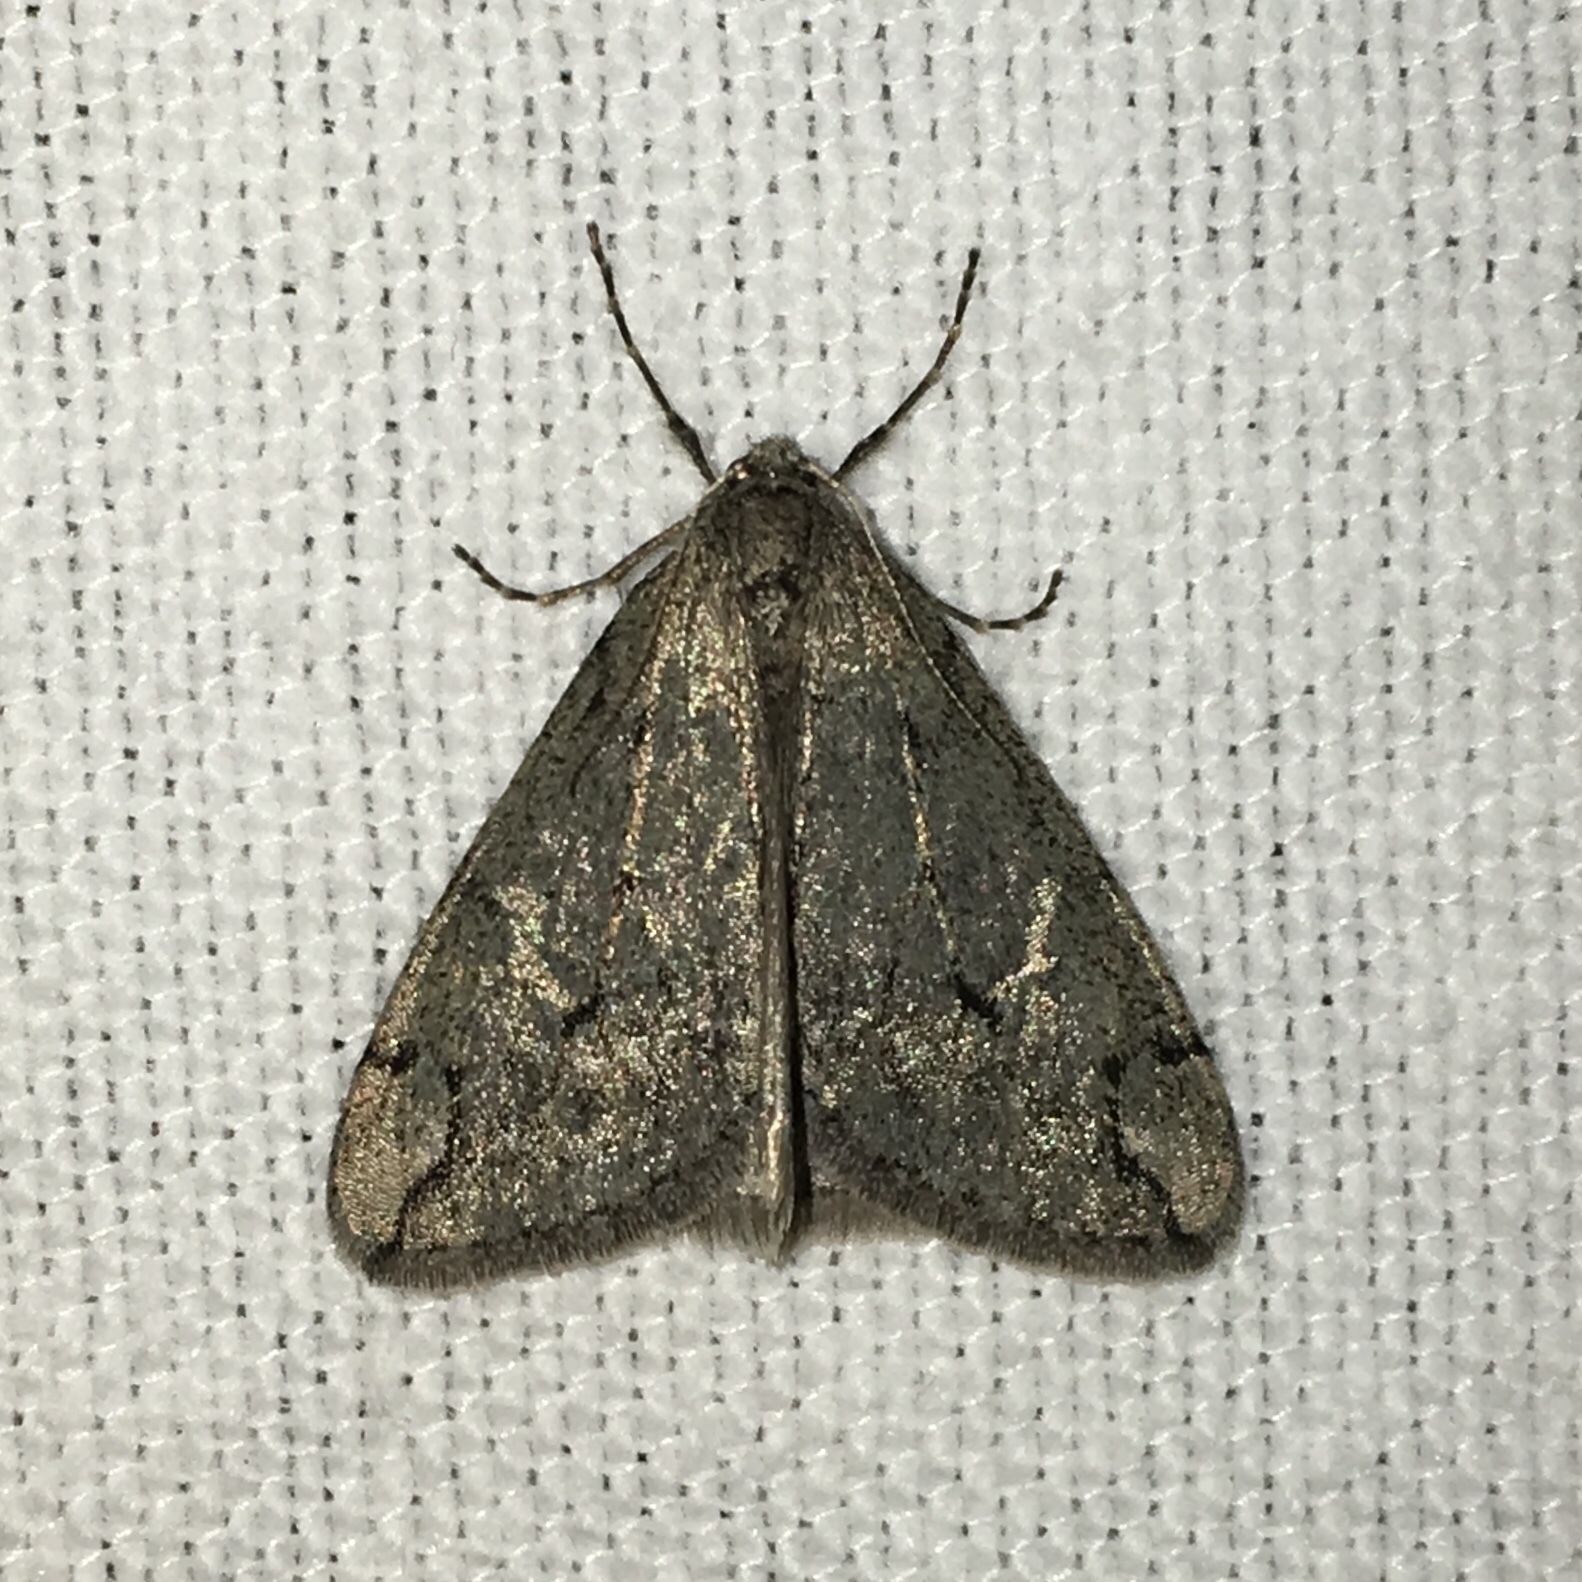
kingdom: Animalia
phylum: Arthropoda
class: Insecta
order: Lepidoptera
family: Geometridae
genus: Paleacrita
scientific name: Paleacrita vernata
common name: Spring cankerworm
